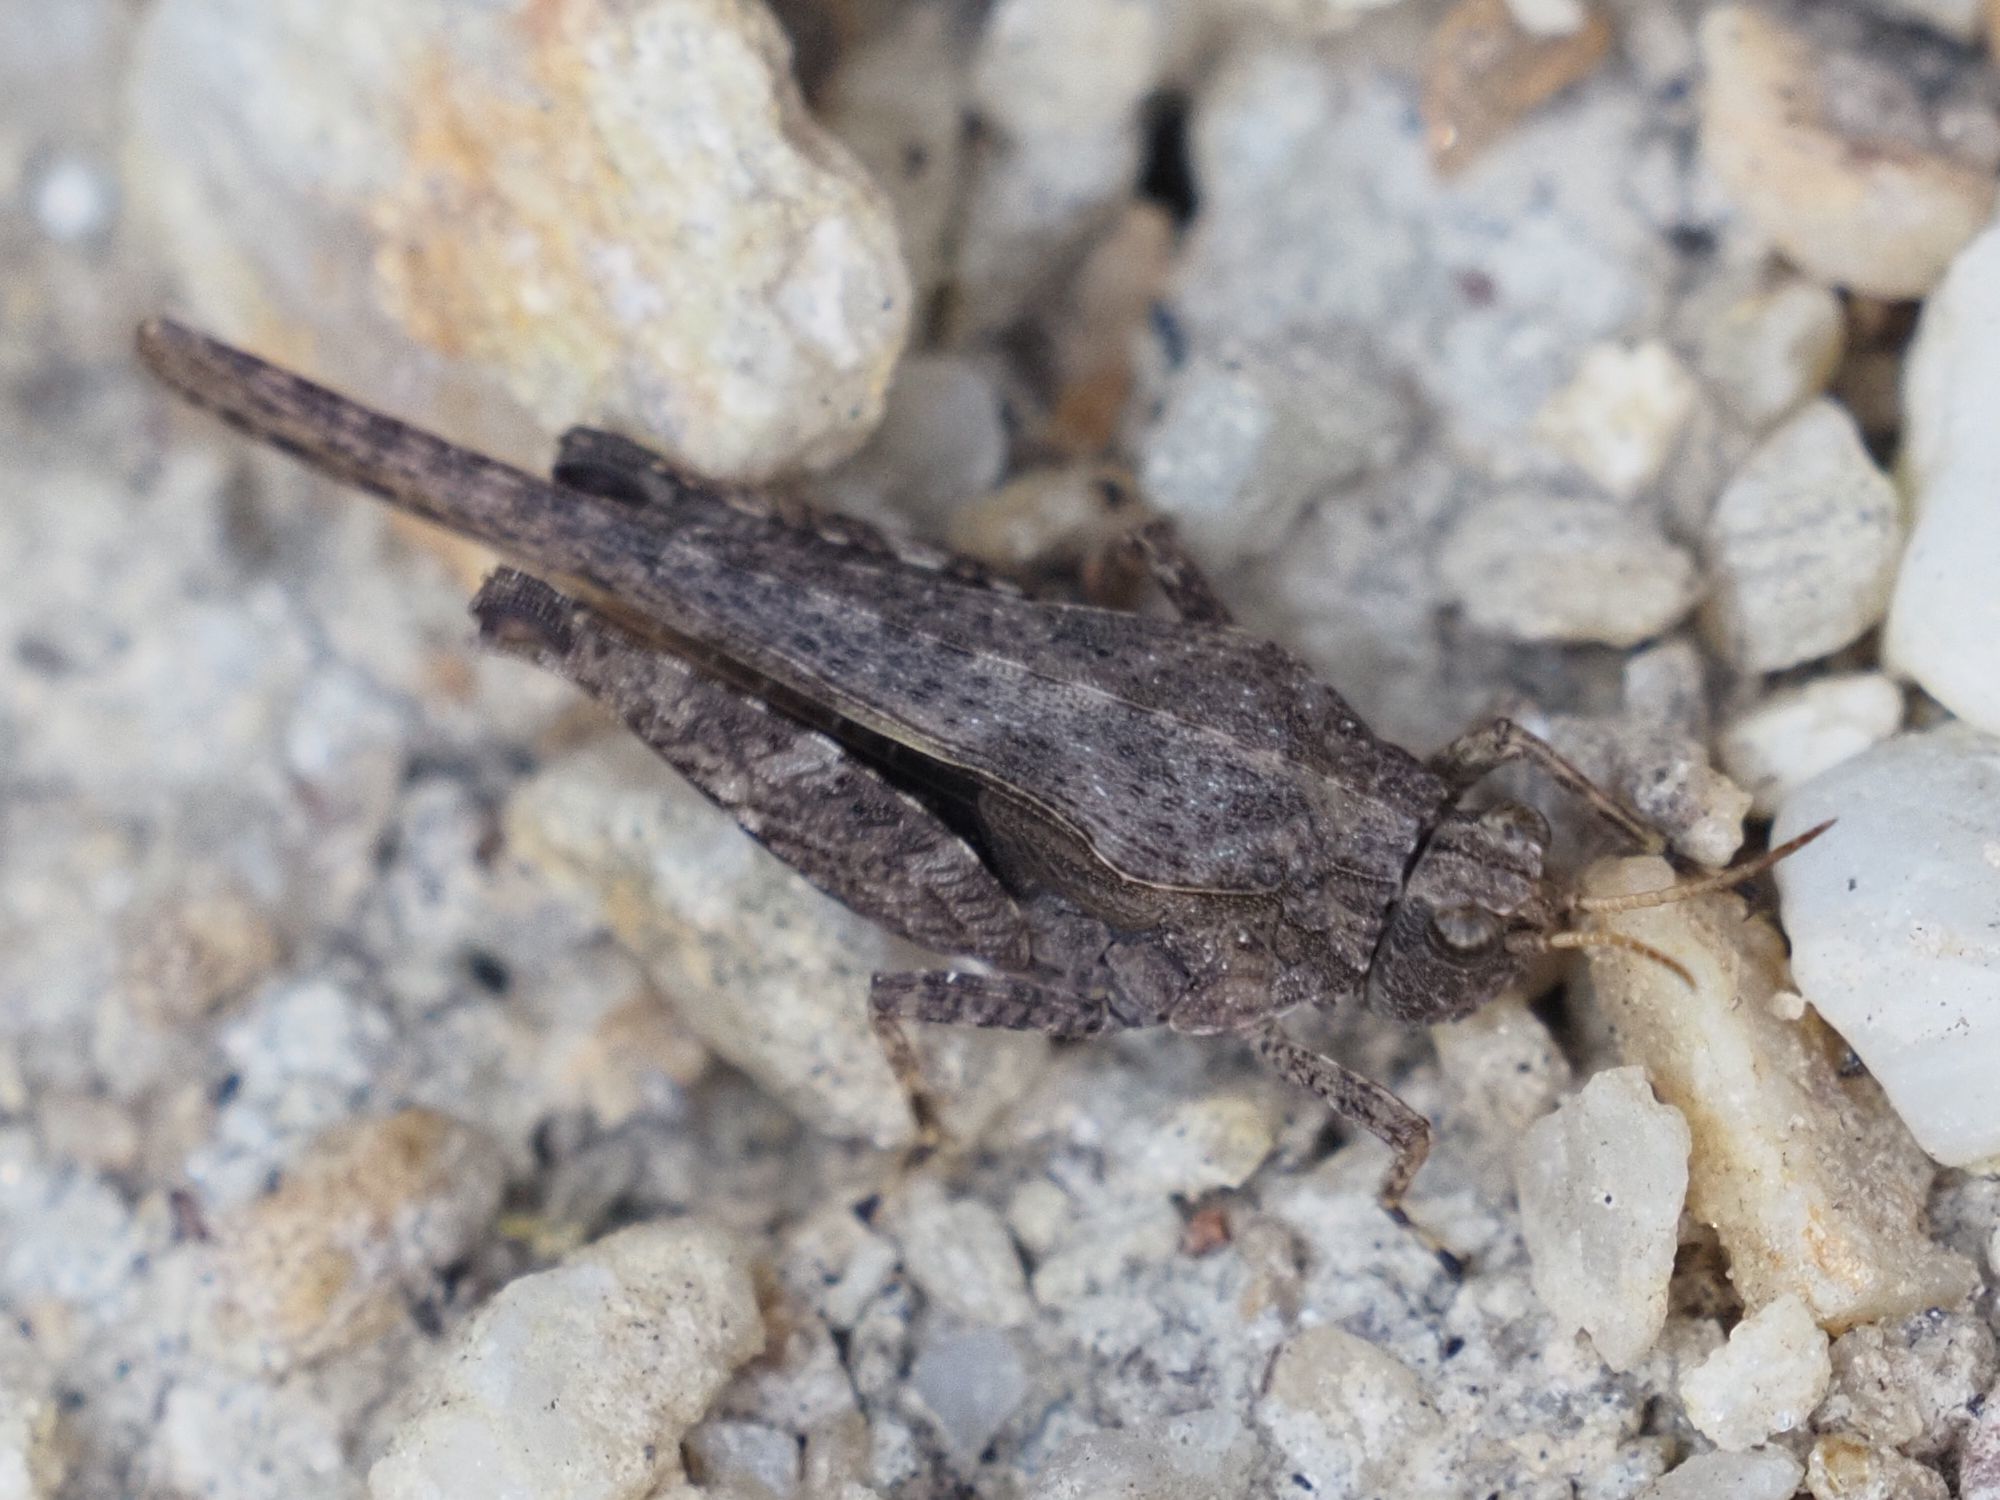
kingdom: Animalia
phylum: Arthropoda
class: Insecta
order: Orthoptera
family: Tetrigidae
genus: Tetrix
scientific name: Tetrix subulata
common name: Slender ground-hopper
